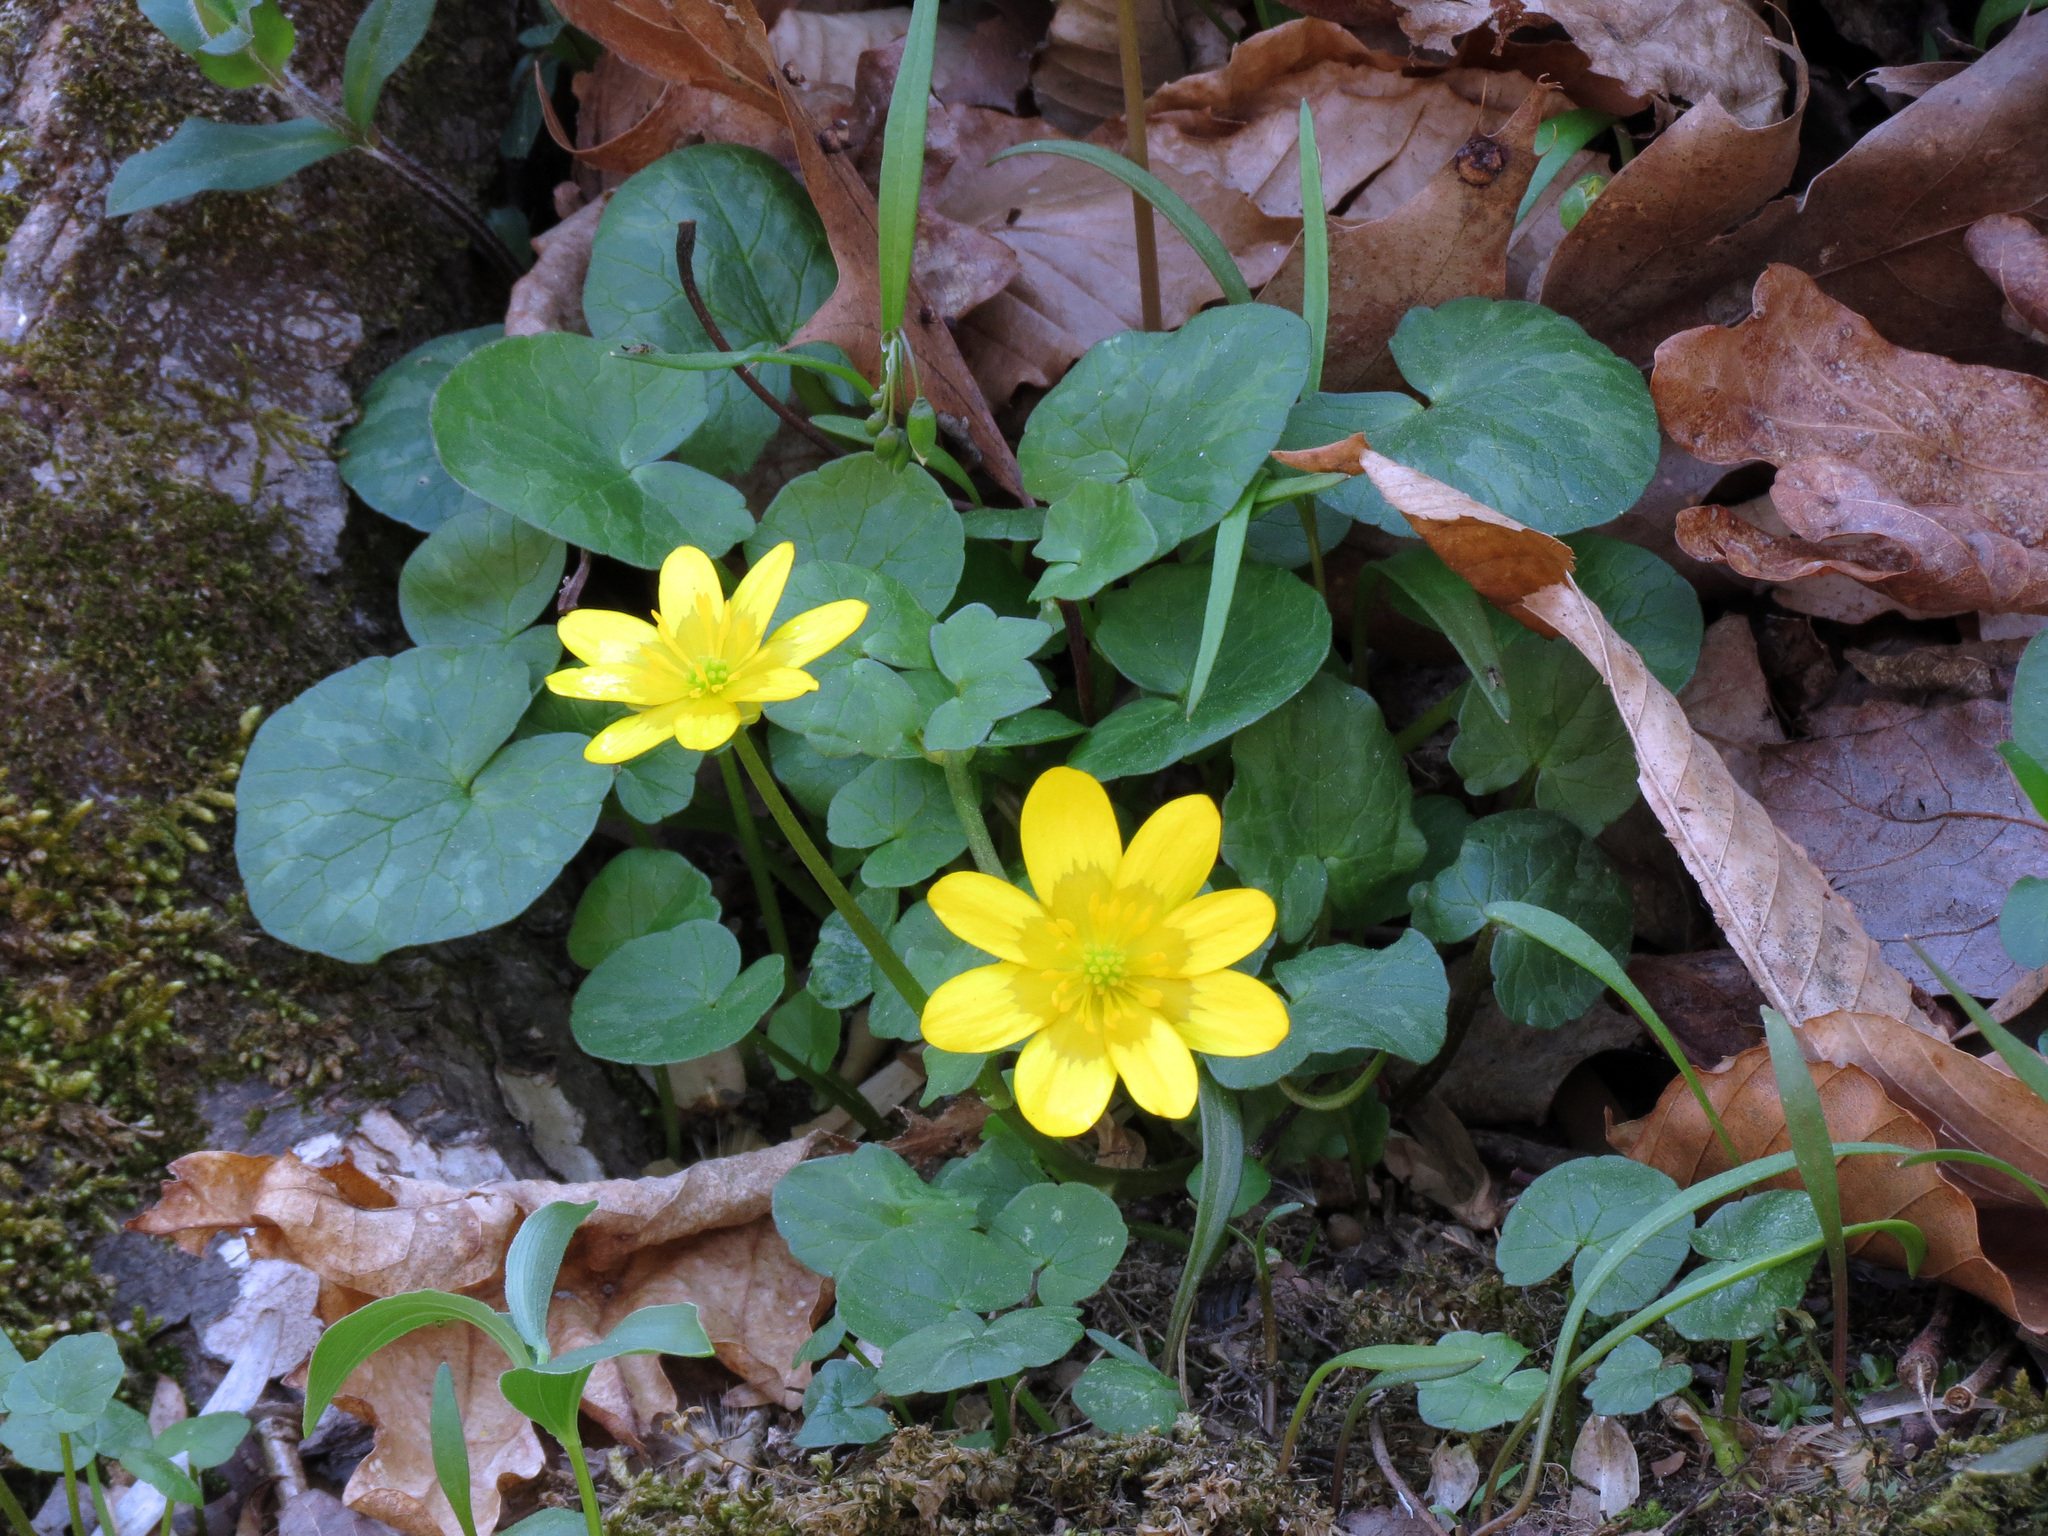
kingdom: Plantae
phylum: Tracheophyta
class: Magnoliopsida
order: Ranunculales
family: Ranunculaceae
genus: Ficaria
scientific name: Ficaria verna
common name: Lesser celandine
